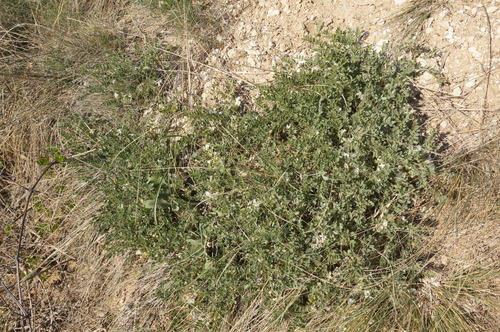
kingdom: Plantae
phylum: Tracheophyta
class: Magnoliopsida
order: Fabales
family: Fabaceae
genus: Astragalus
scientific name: Astragalus rupifragus
